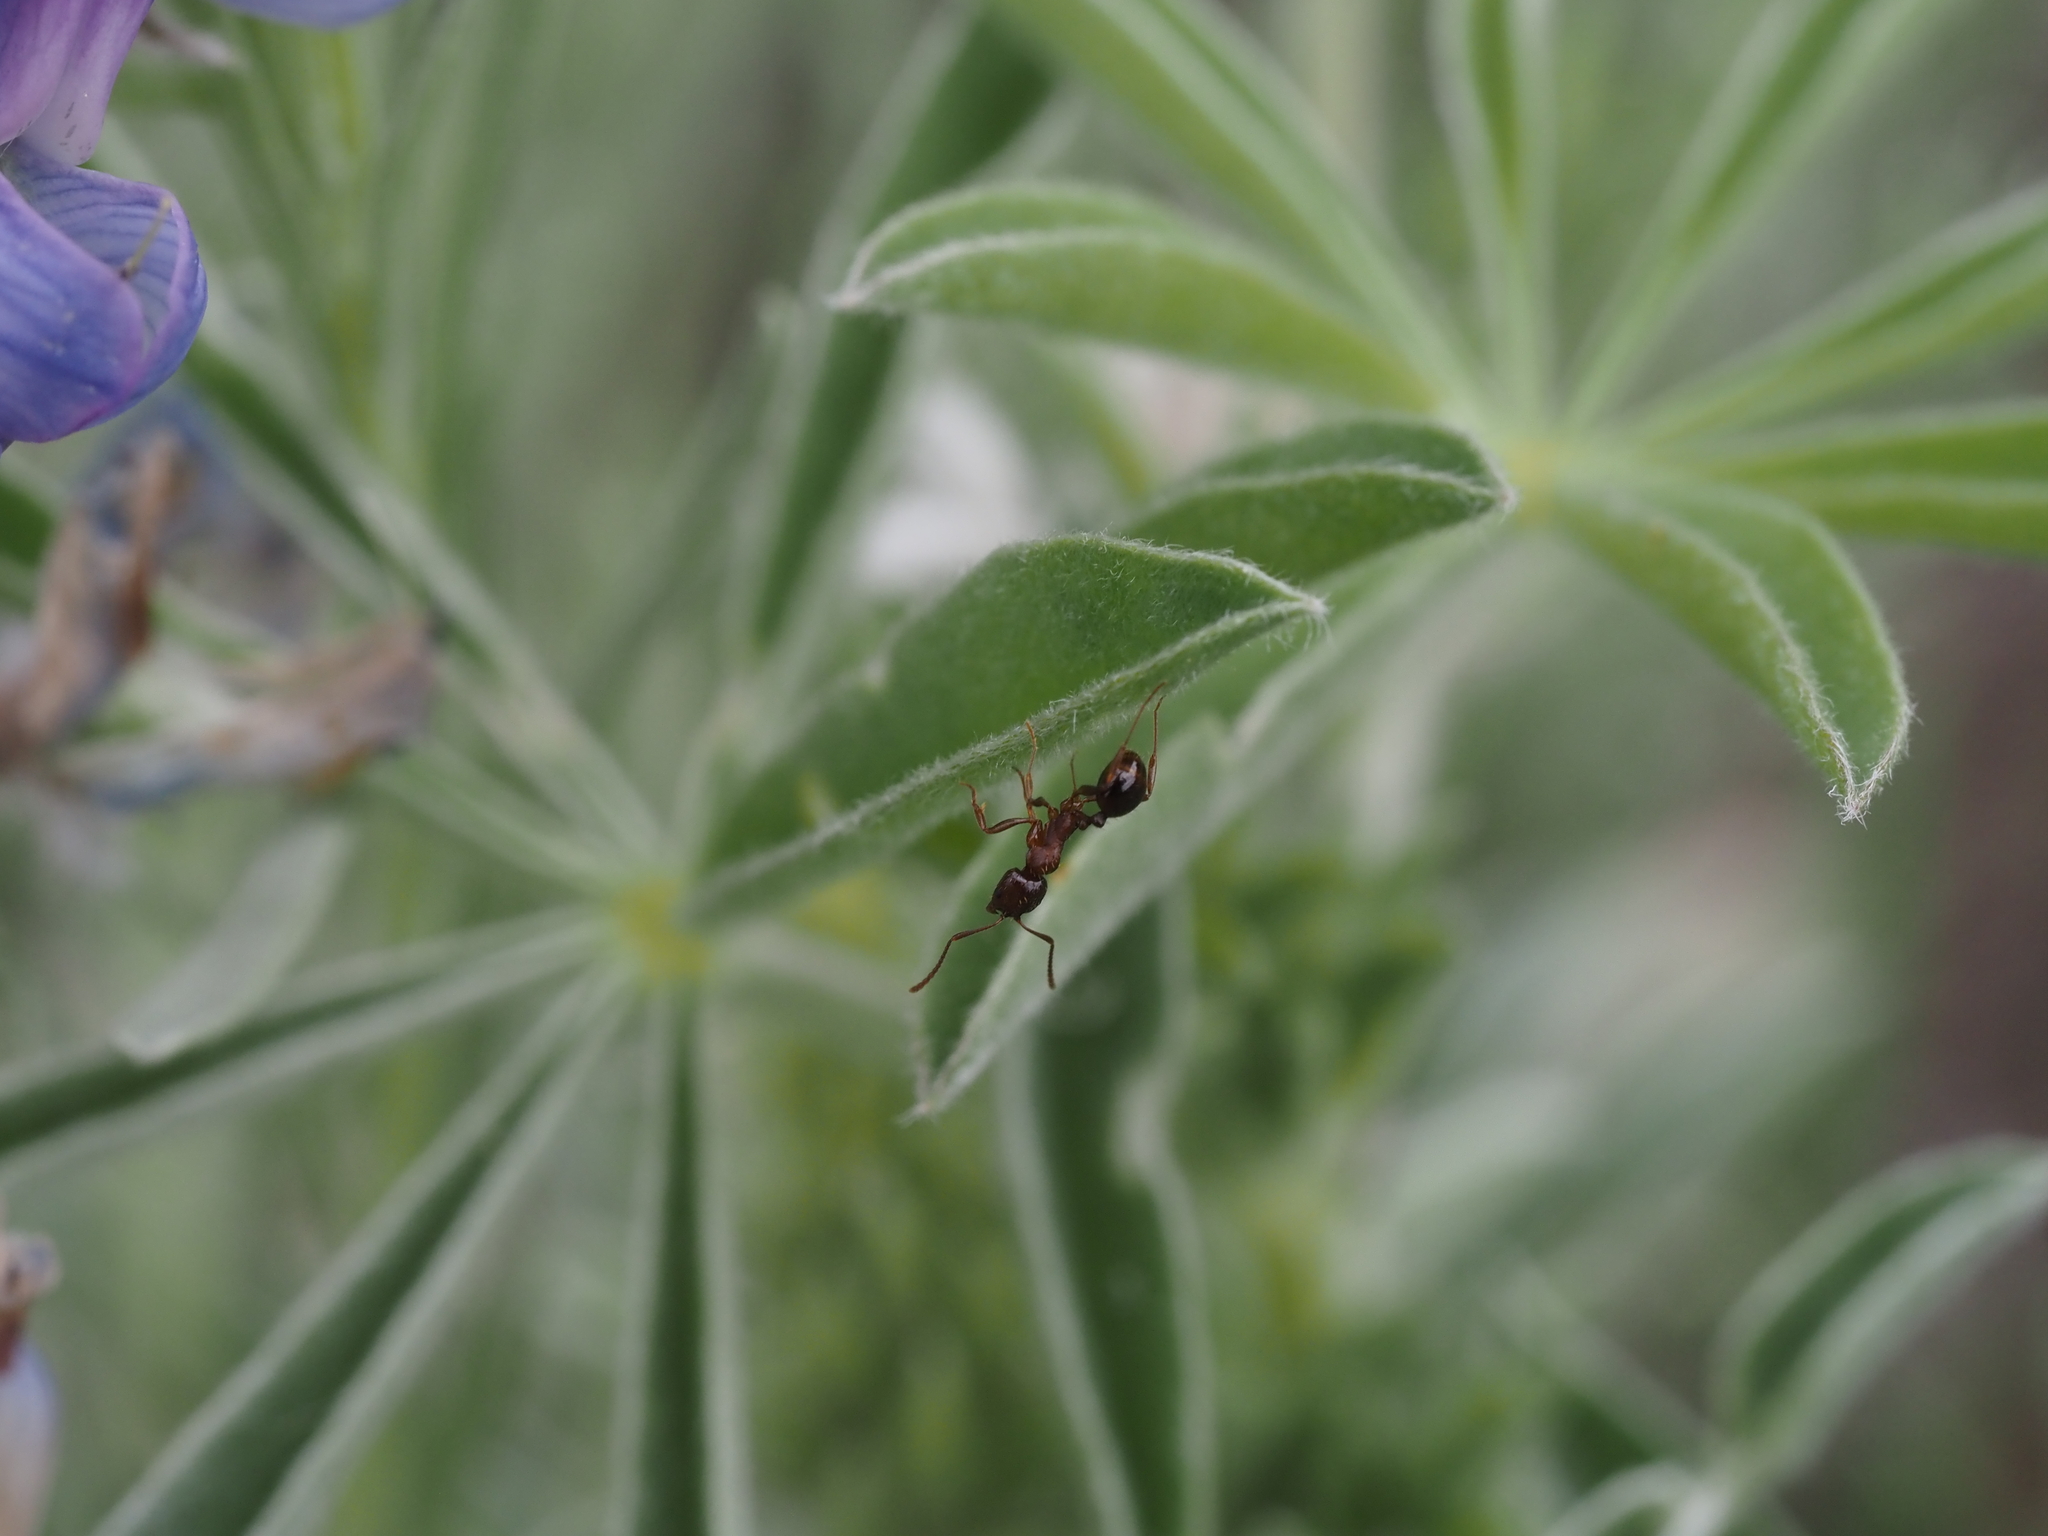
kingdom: Animalia
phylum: Arthropoda
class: Insecta
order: Hymenoptera
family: Formicidae
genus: Aphaenogaster
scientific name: Aphaenogaster occidentalis
